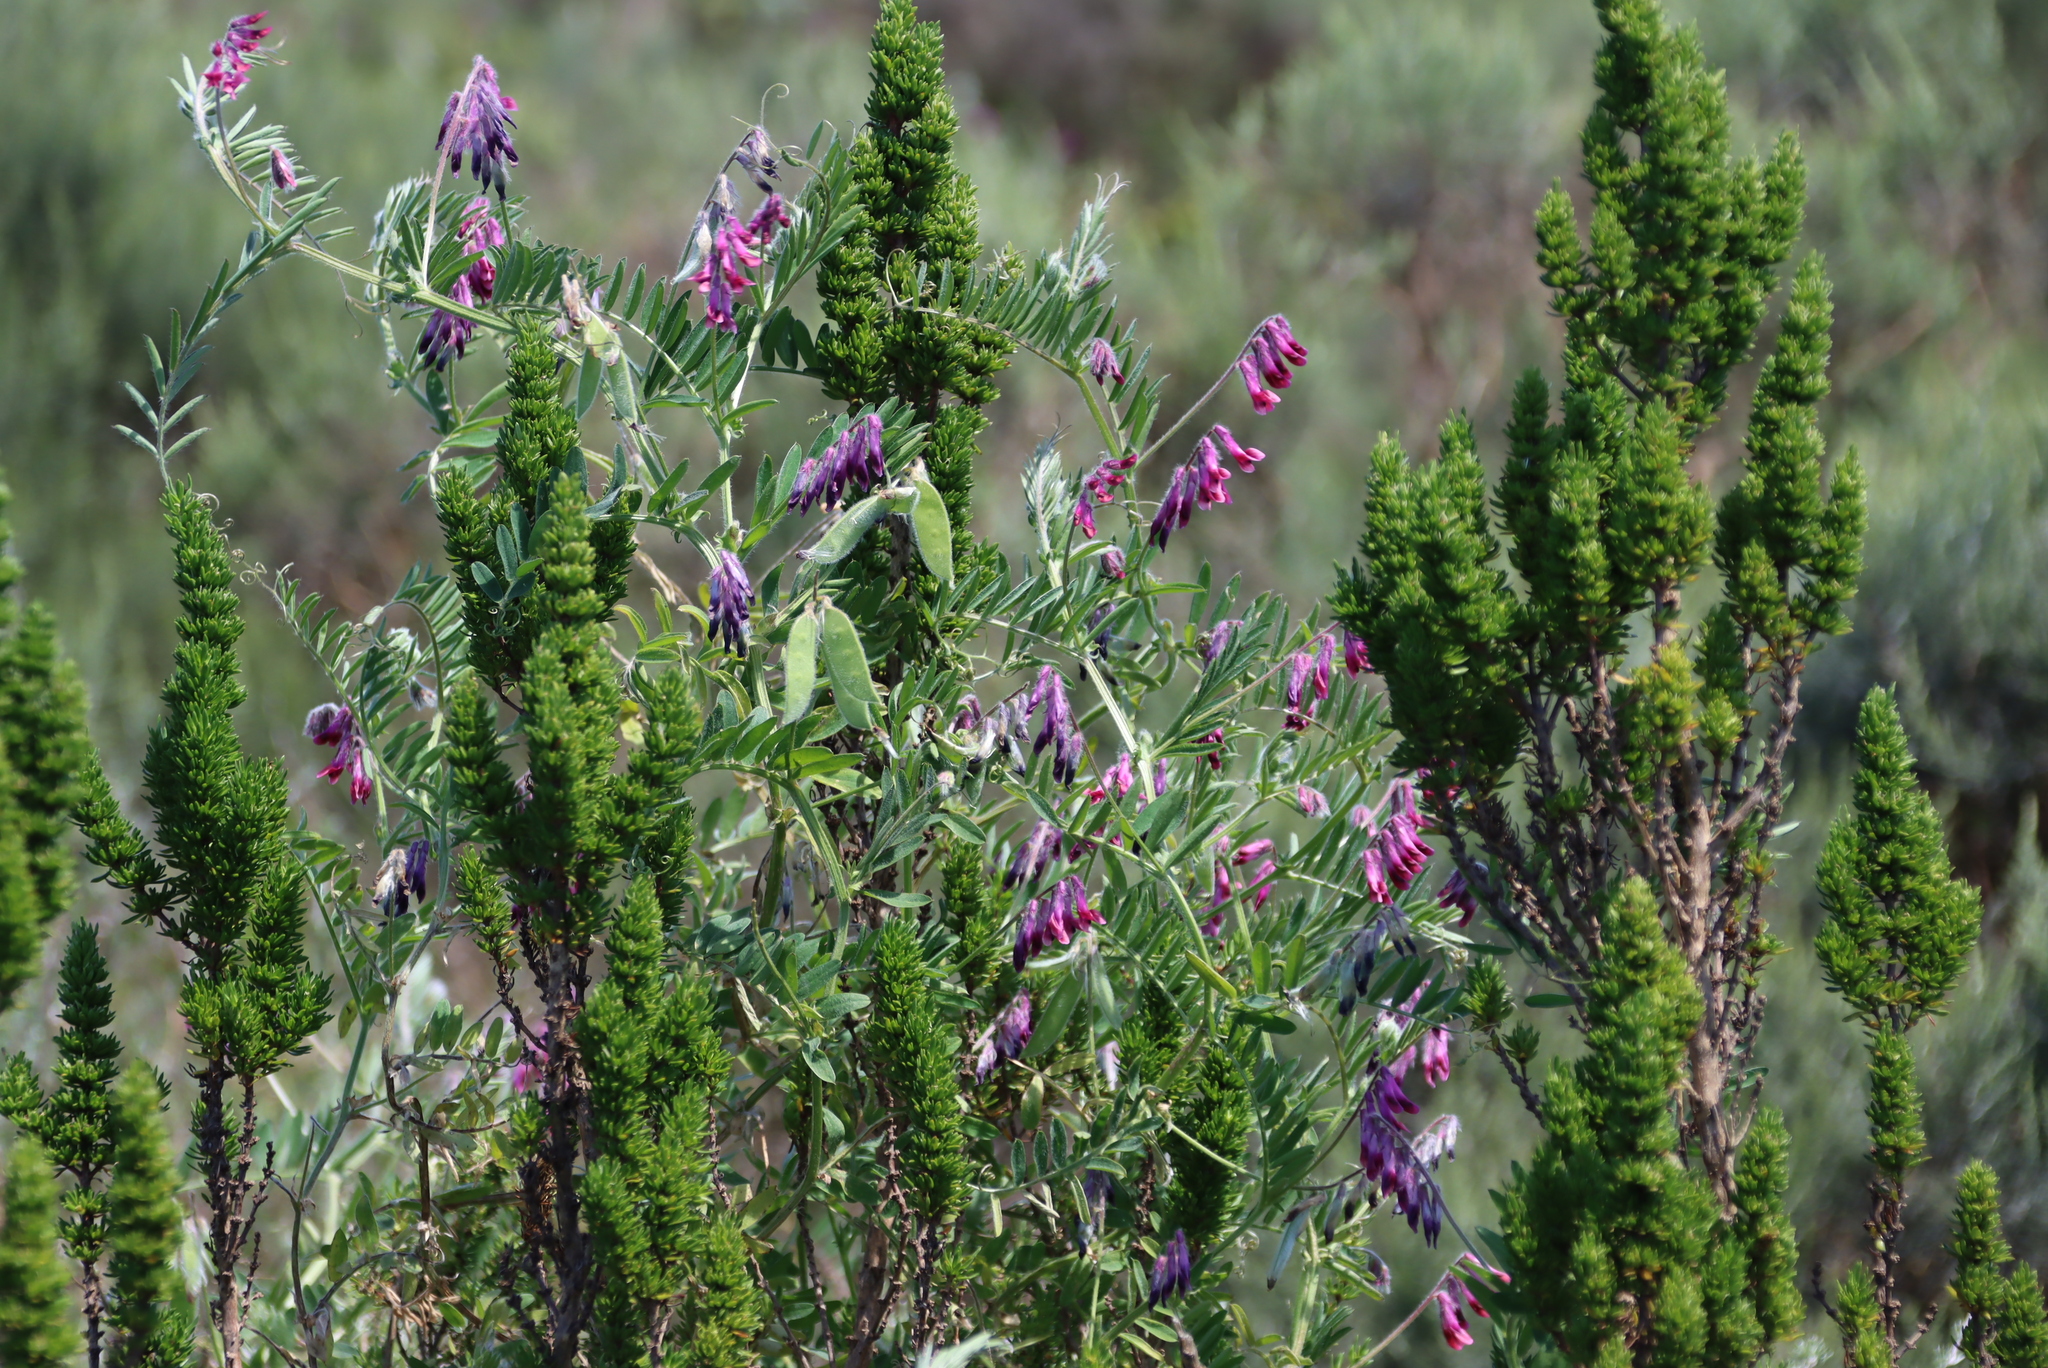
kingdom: Plantae
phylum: Tracheophyta
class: Magnoliopsida
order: Fabales
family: Fabaceae
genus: Vicia
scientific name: Vicia benghalensis
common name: Purple vetch
